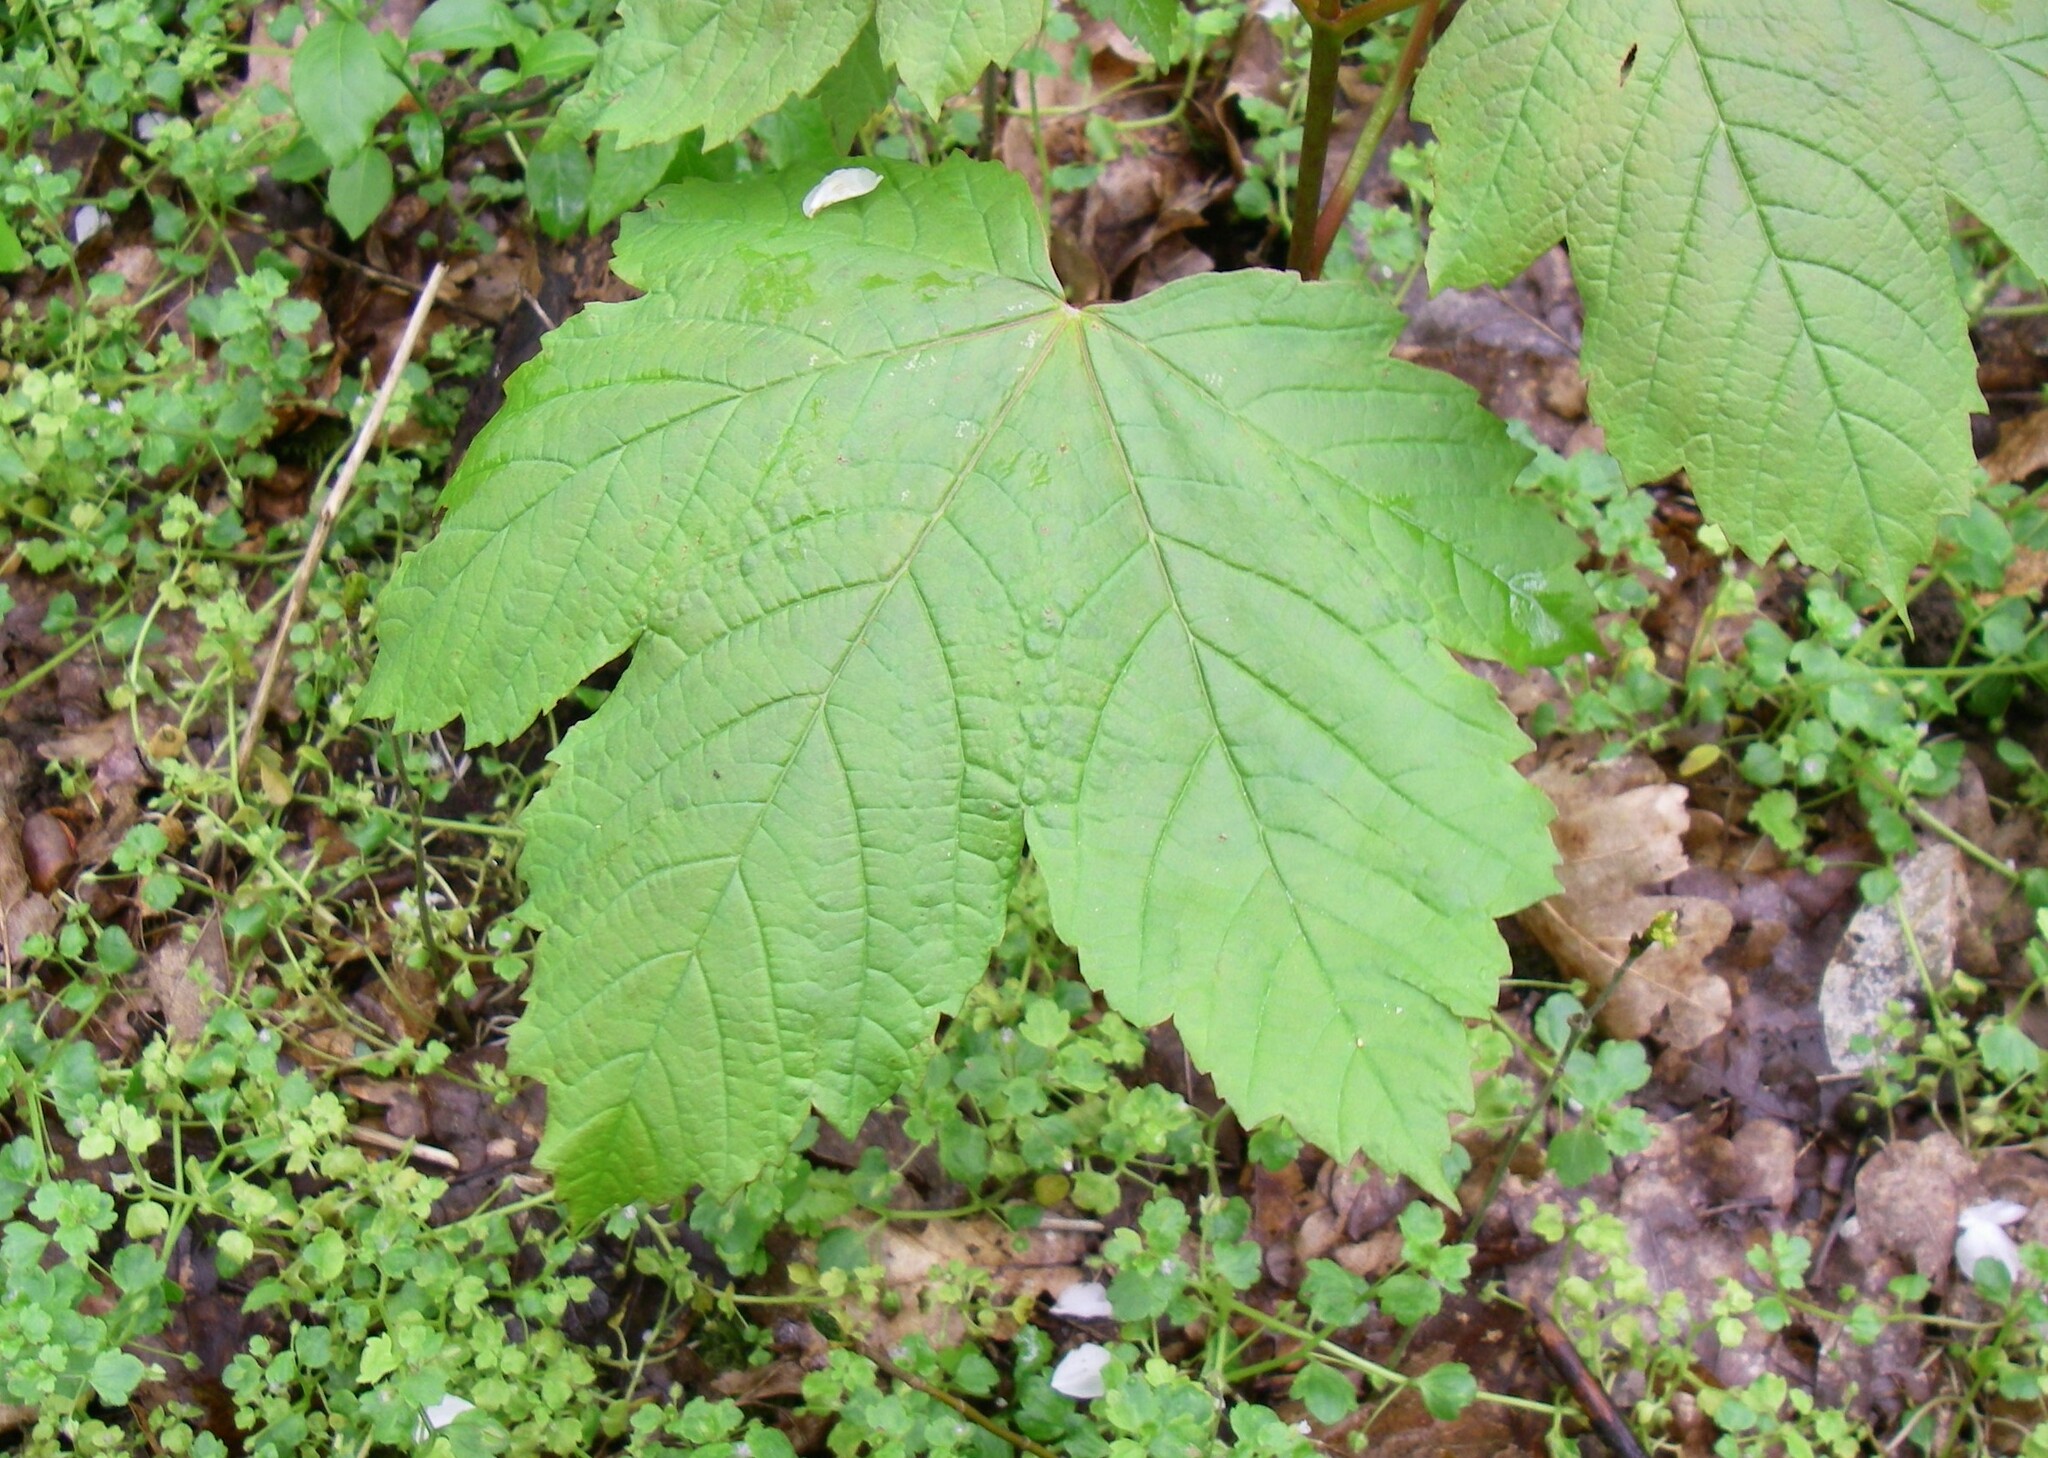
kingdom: Plantae
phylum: Tracheophyta
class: Magnoliopsida
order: Sapindales
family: Sapindaceae
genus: Acer
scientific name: Acer pseudoplatanus
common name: Sycamore
